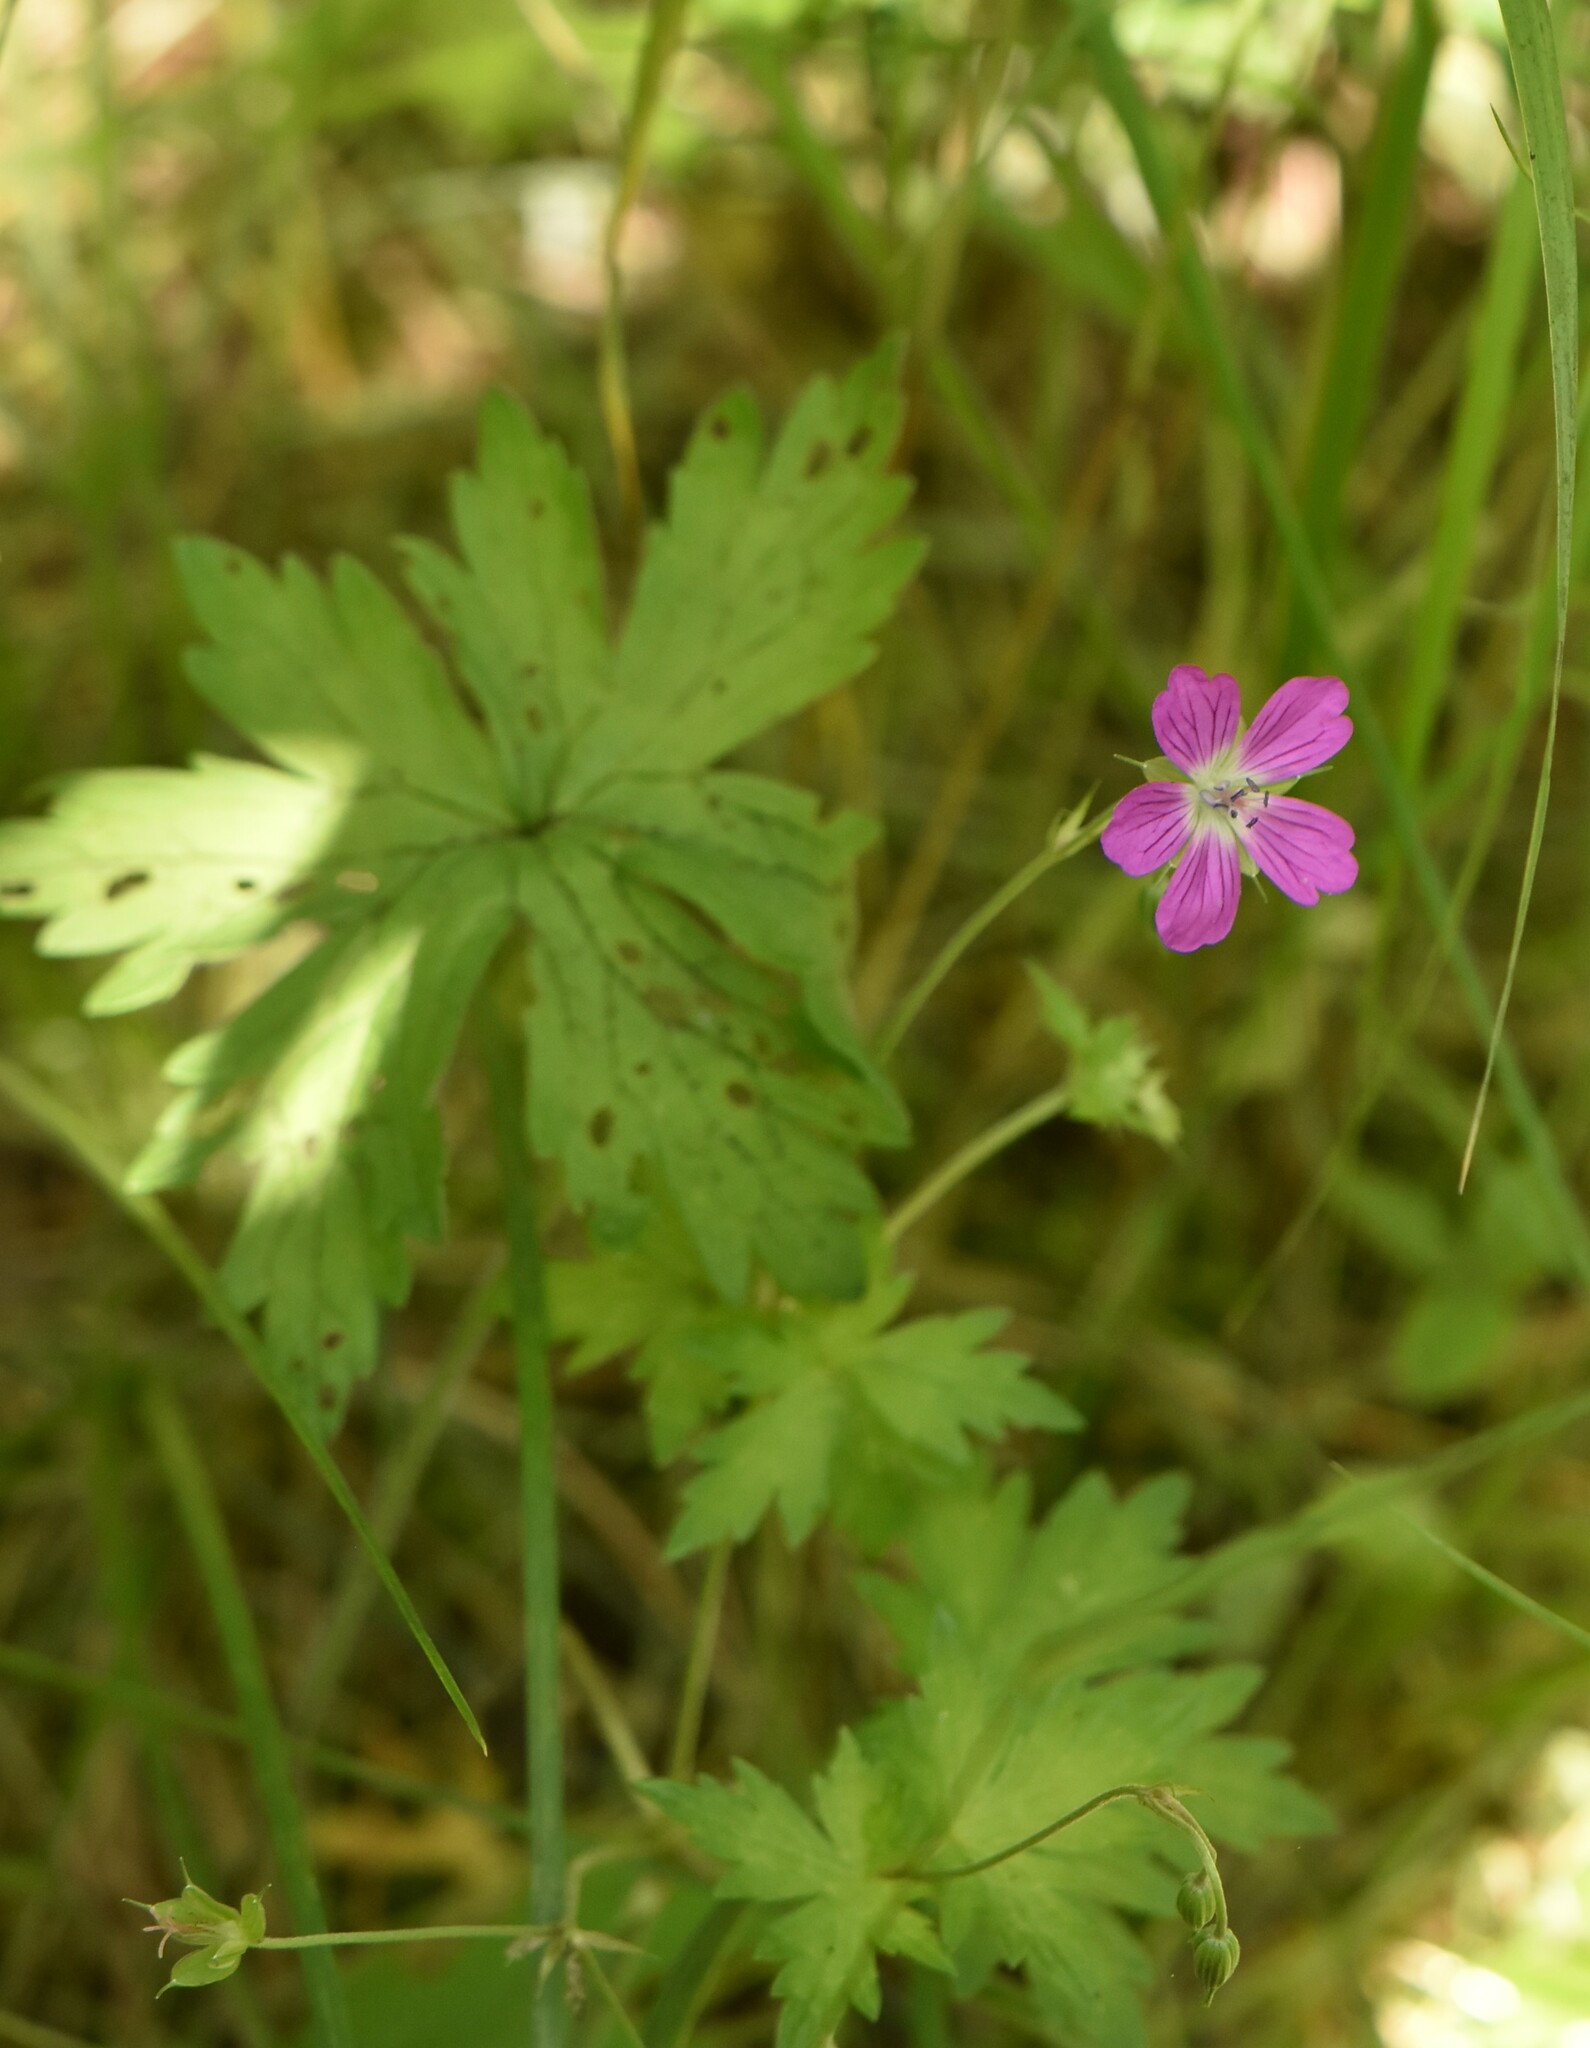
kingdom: Plantae
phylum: Tracheophyta
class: Magnoliopsida
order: Geraniales
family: Geraniaceae
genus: Geranium
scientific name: Geranium palustre
